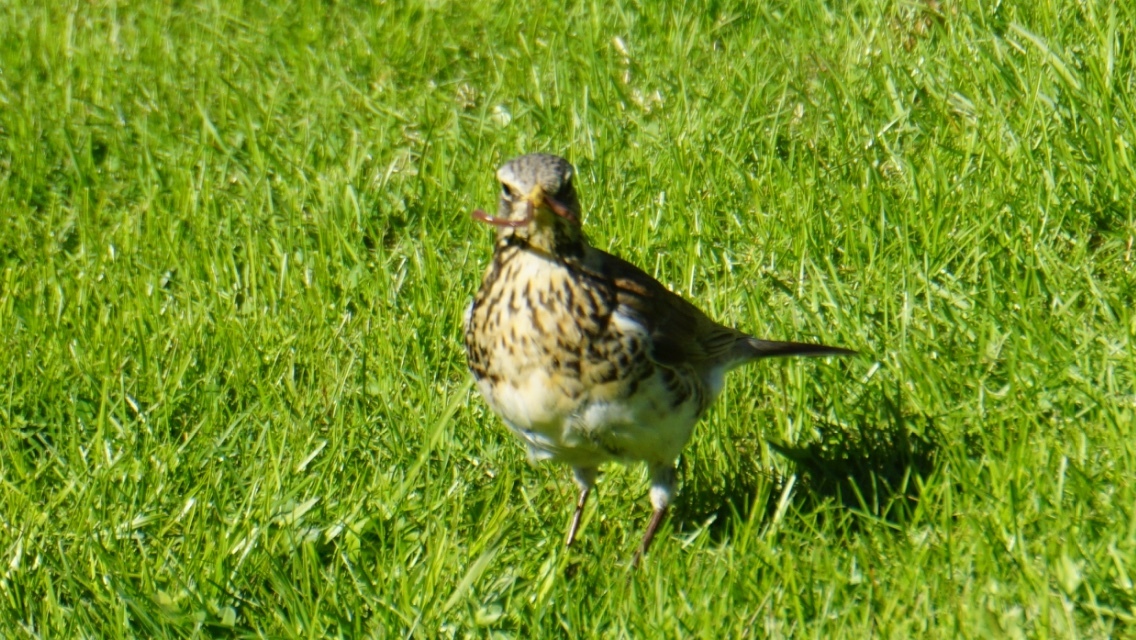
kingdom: Animalia
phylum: Chordata
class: Aves
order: Passeriformes
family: Turdidae
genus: Turdus
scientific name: Turdus pilaris
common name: Fieldfare
